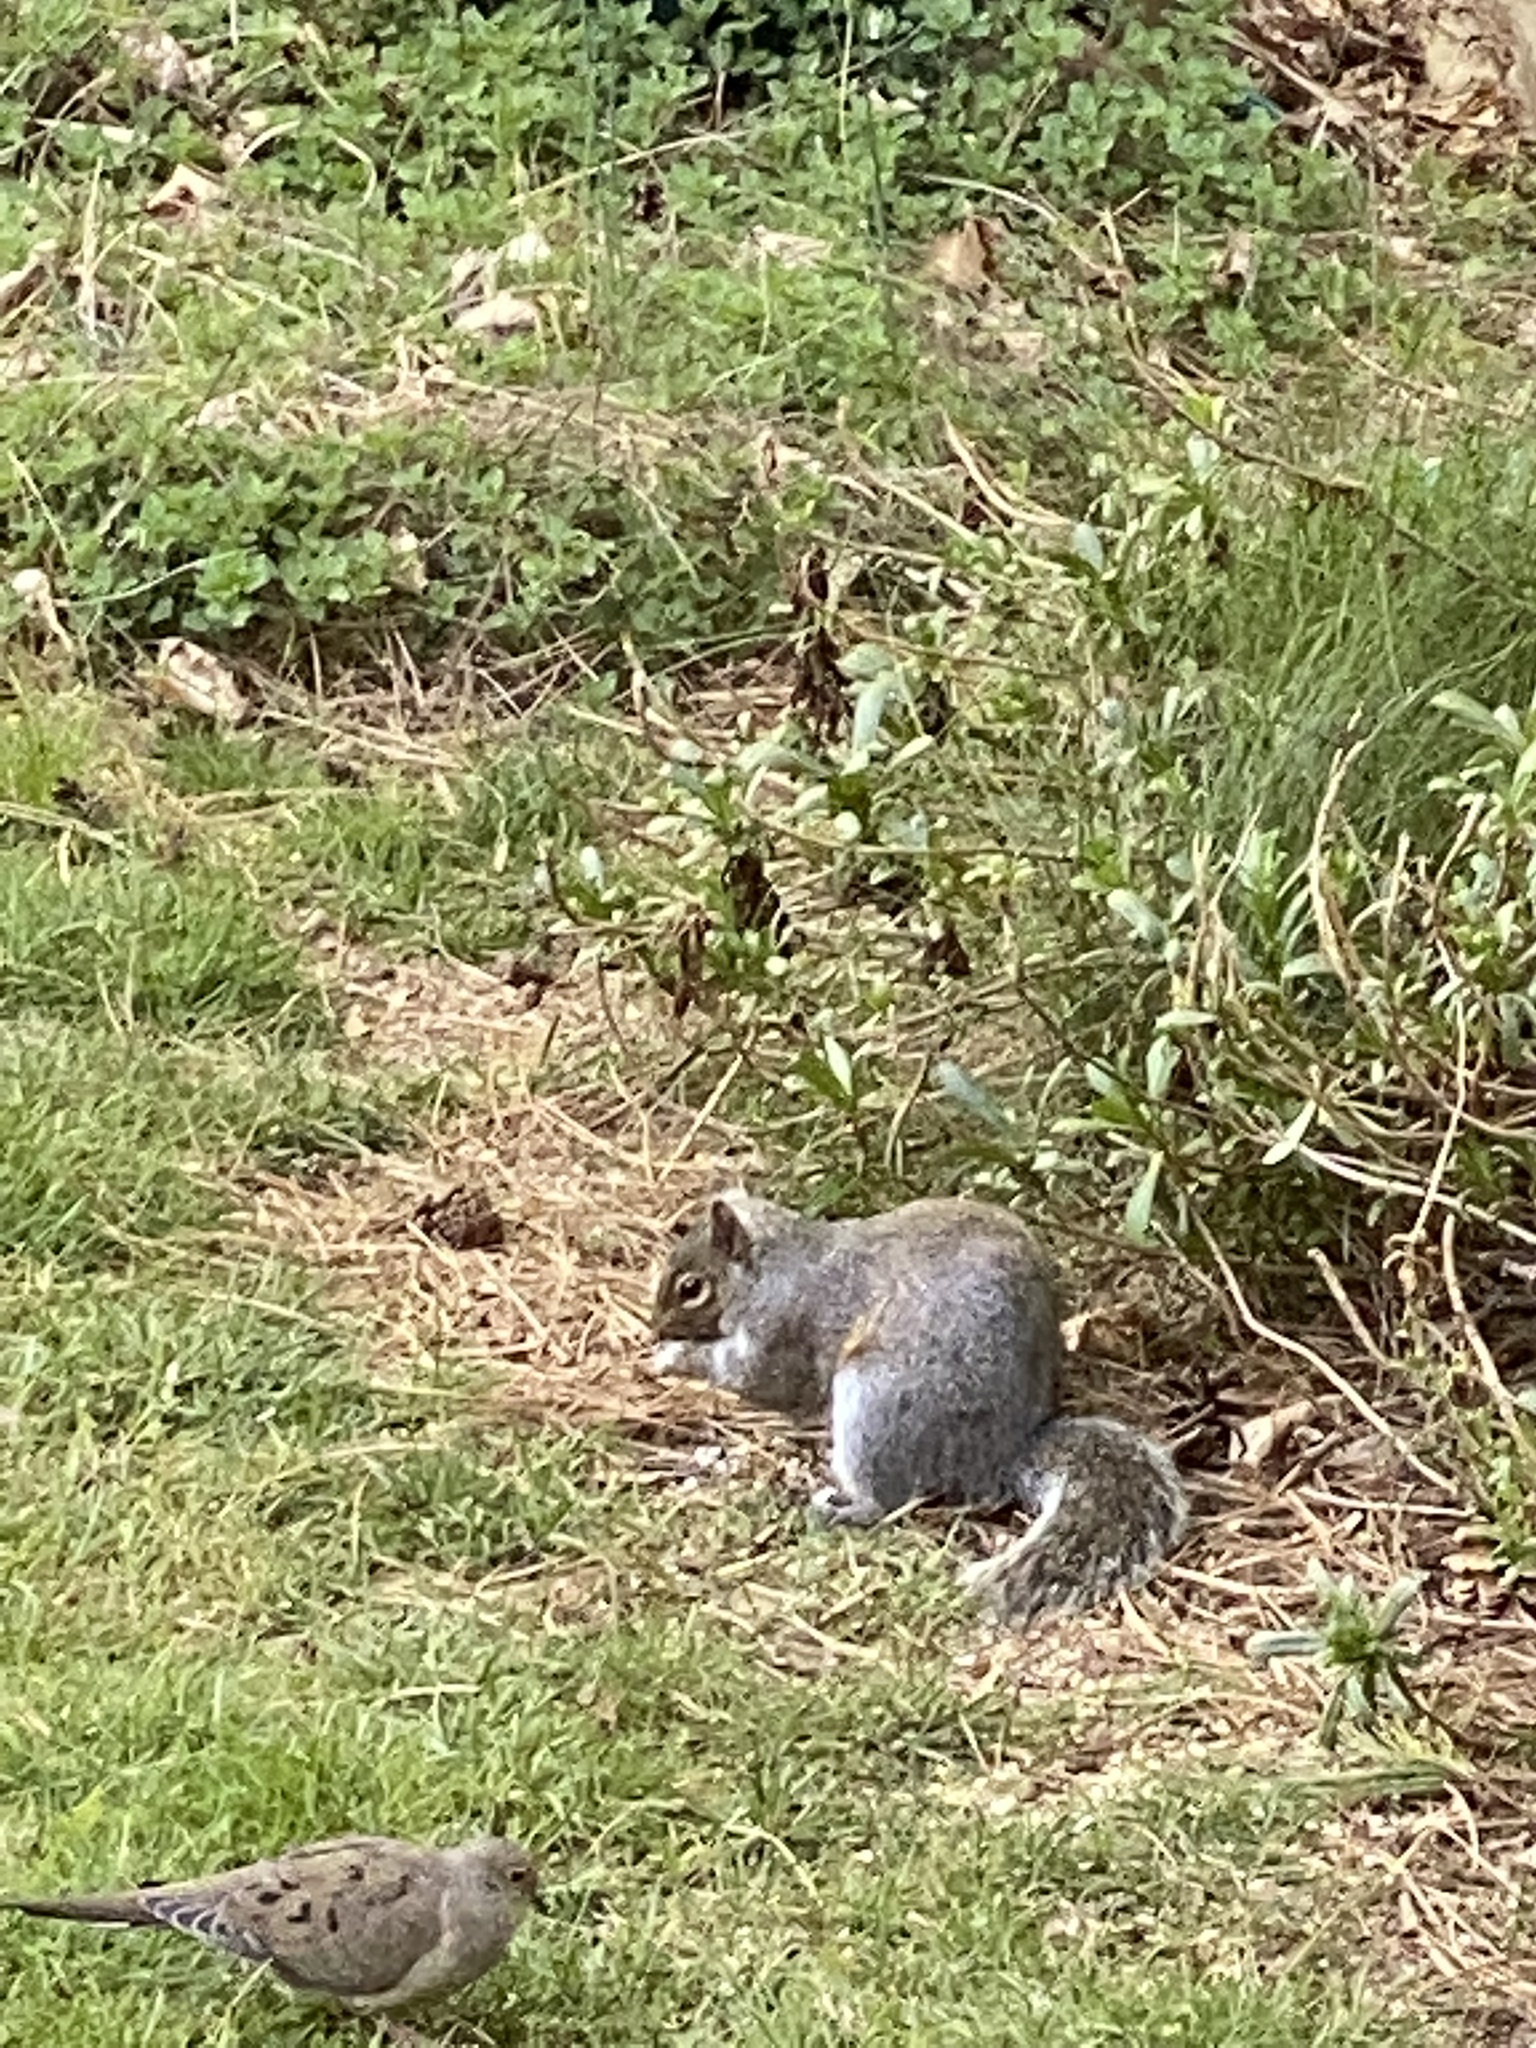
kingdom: Animalia
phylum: Chordata
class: Mammalia
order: Rodentia
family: Sciuridae
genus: Sciurus
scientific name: Sciurus carolinensis
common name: Eastern gray squirrel
